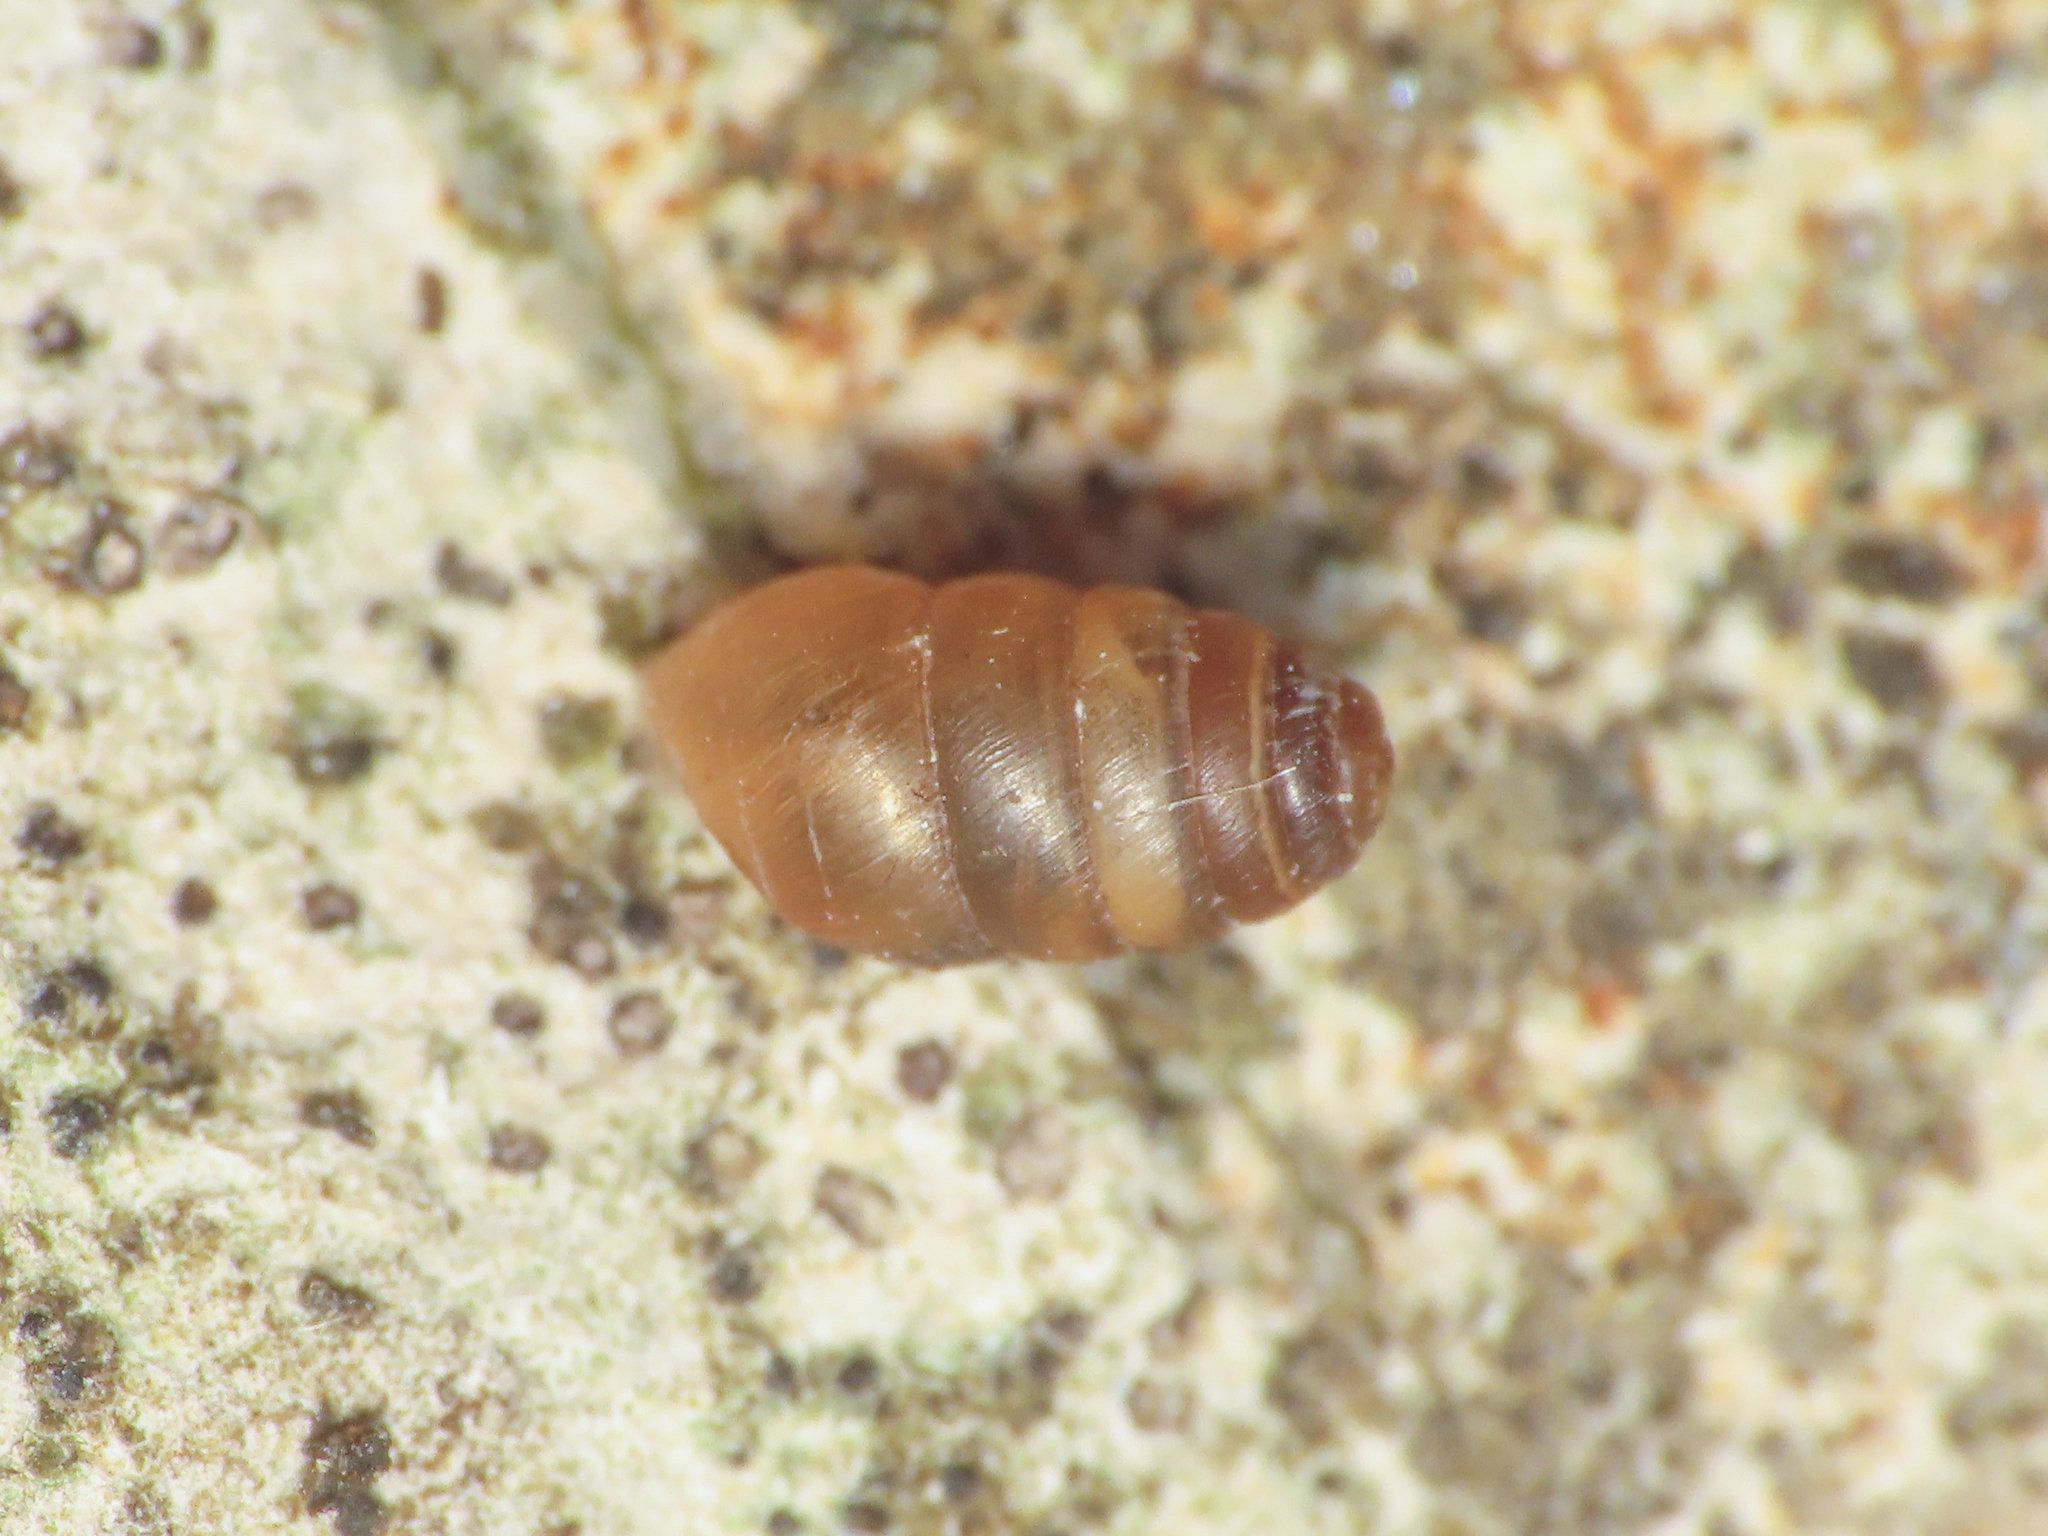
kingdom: Animalia
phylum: Mollusca
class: Gastropoda
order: Stylommatophora
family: Lauriidae
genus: Lauria
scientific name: Lauria cylindracea
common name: Common chrysalis snail
